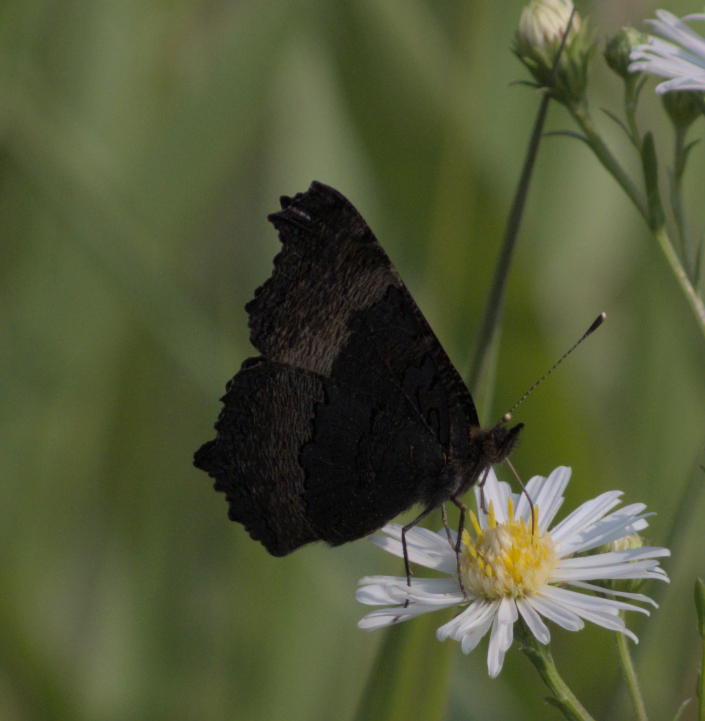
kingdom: Animalia
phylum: Arthropoda
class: Insecta
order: Lepidoptera
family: Nymphalidae
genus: Aglais
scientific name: Aglais milberti
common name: Milbert's tortoiseshell
